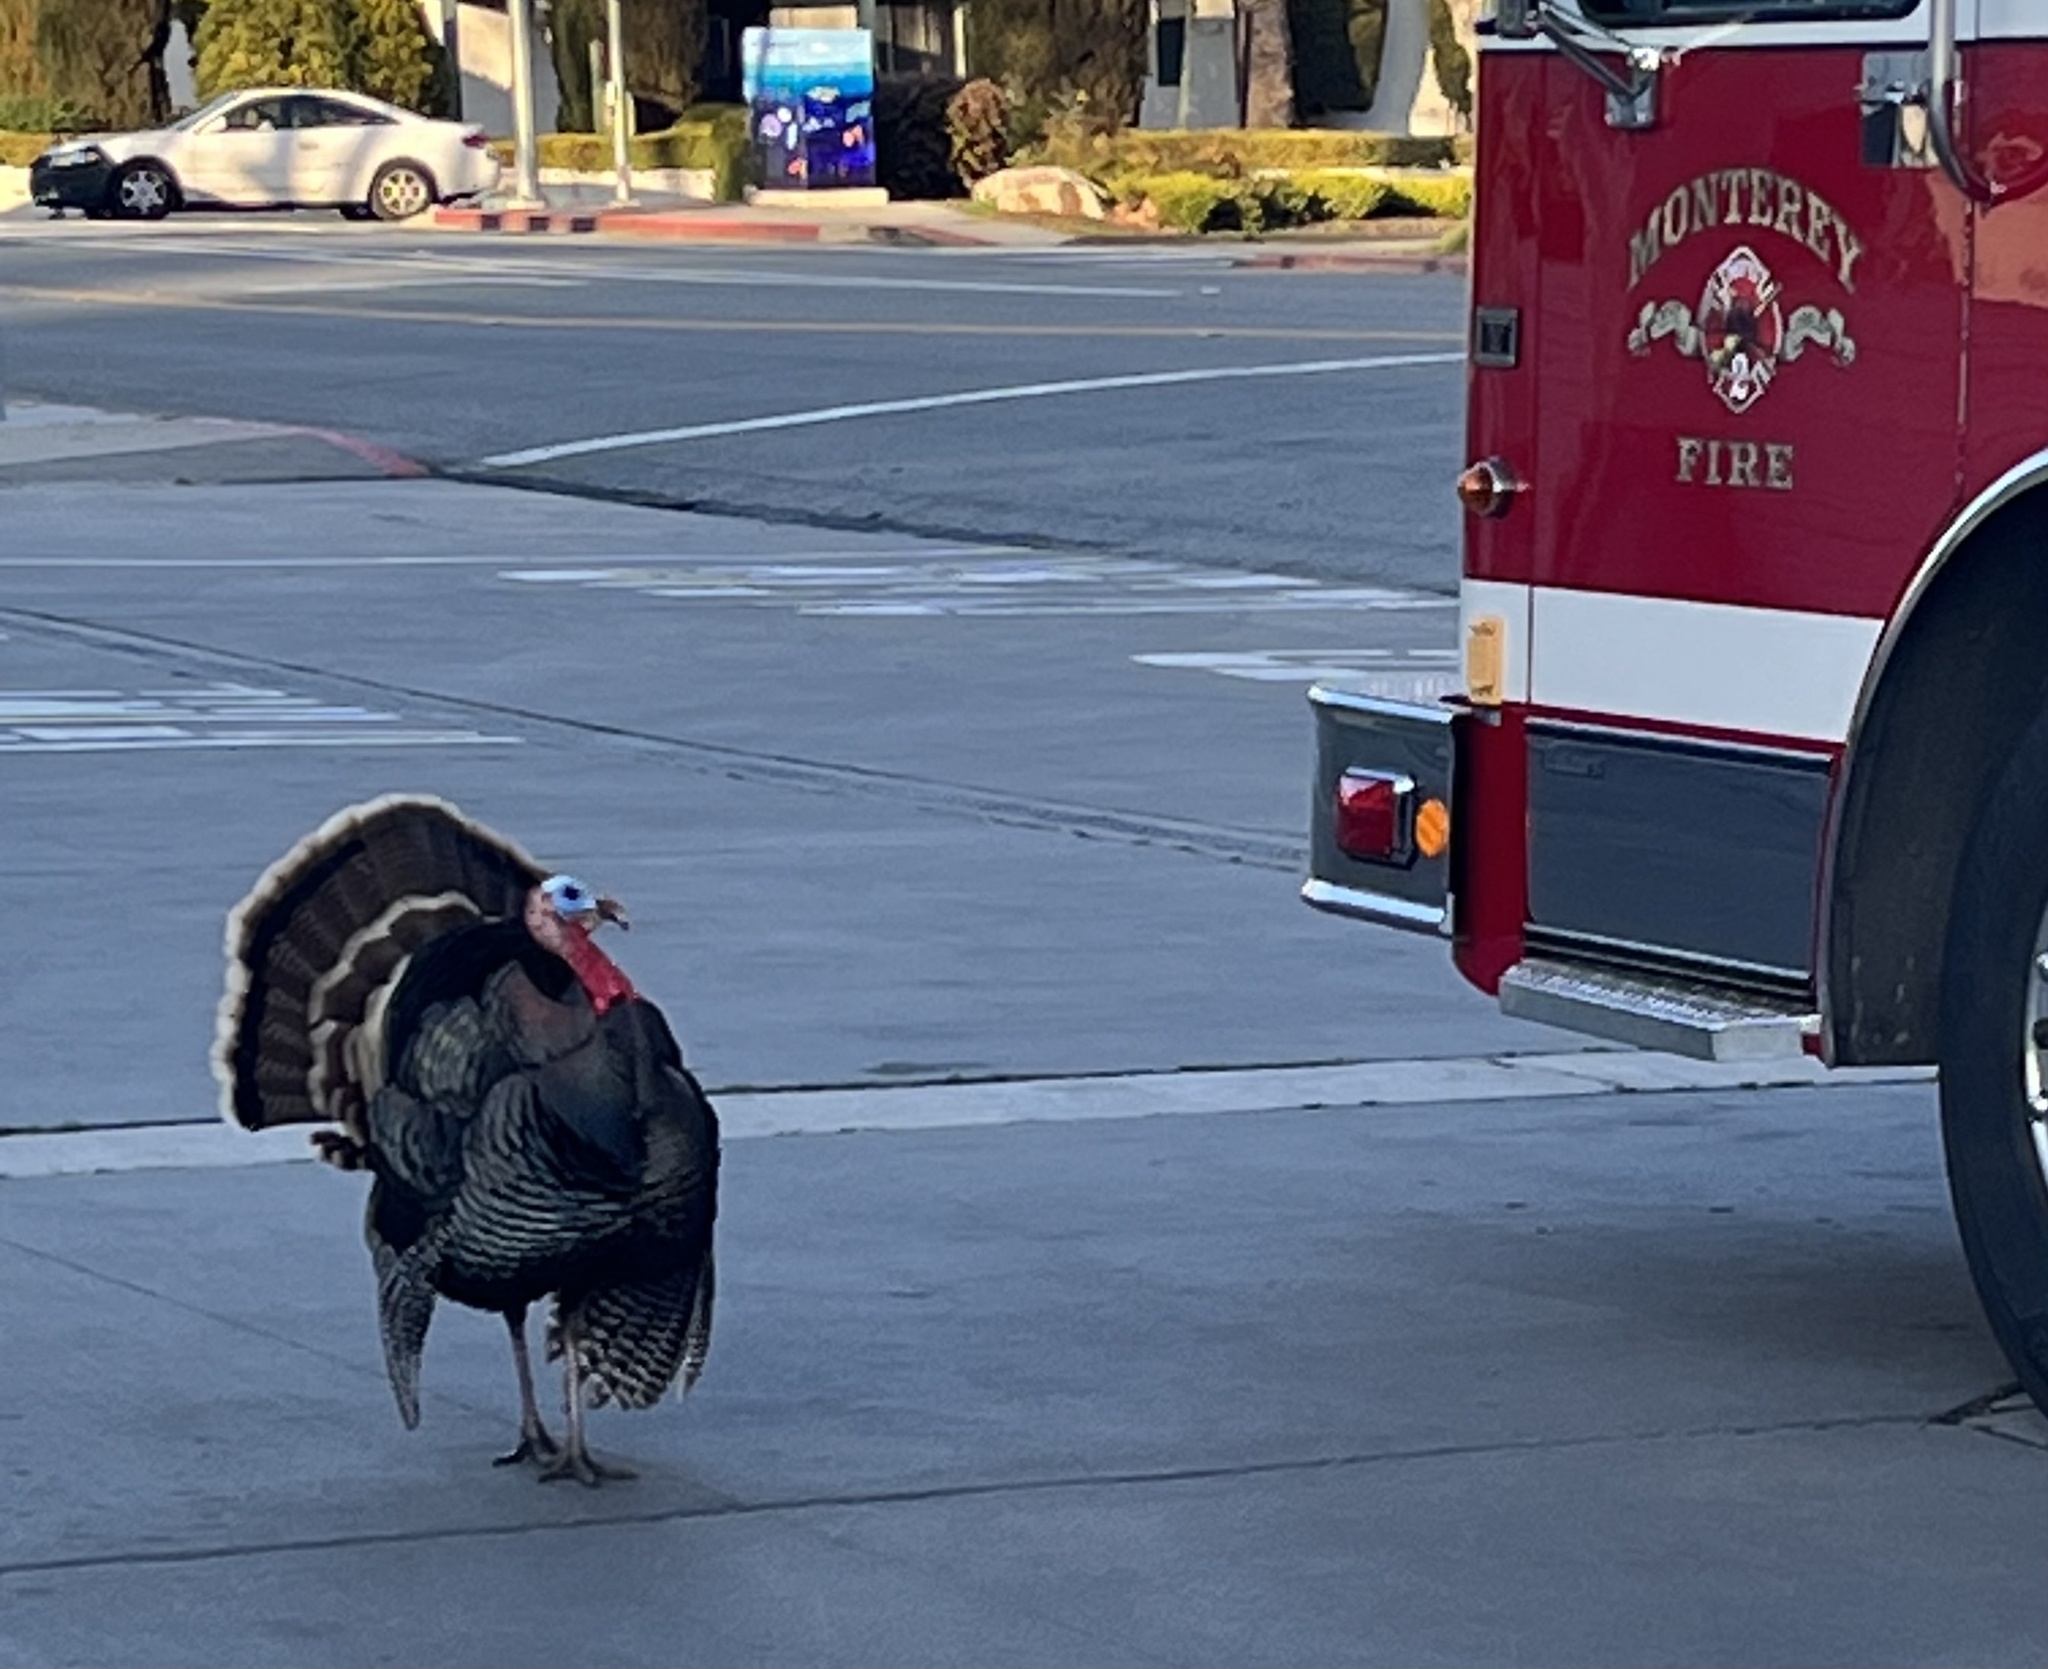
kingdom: Animalia
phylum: Chordata
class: Aves
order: Galliformes
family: Phasianidae
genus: Meleagris
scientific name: Meleagris gallopavo
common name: Wild turkey
